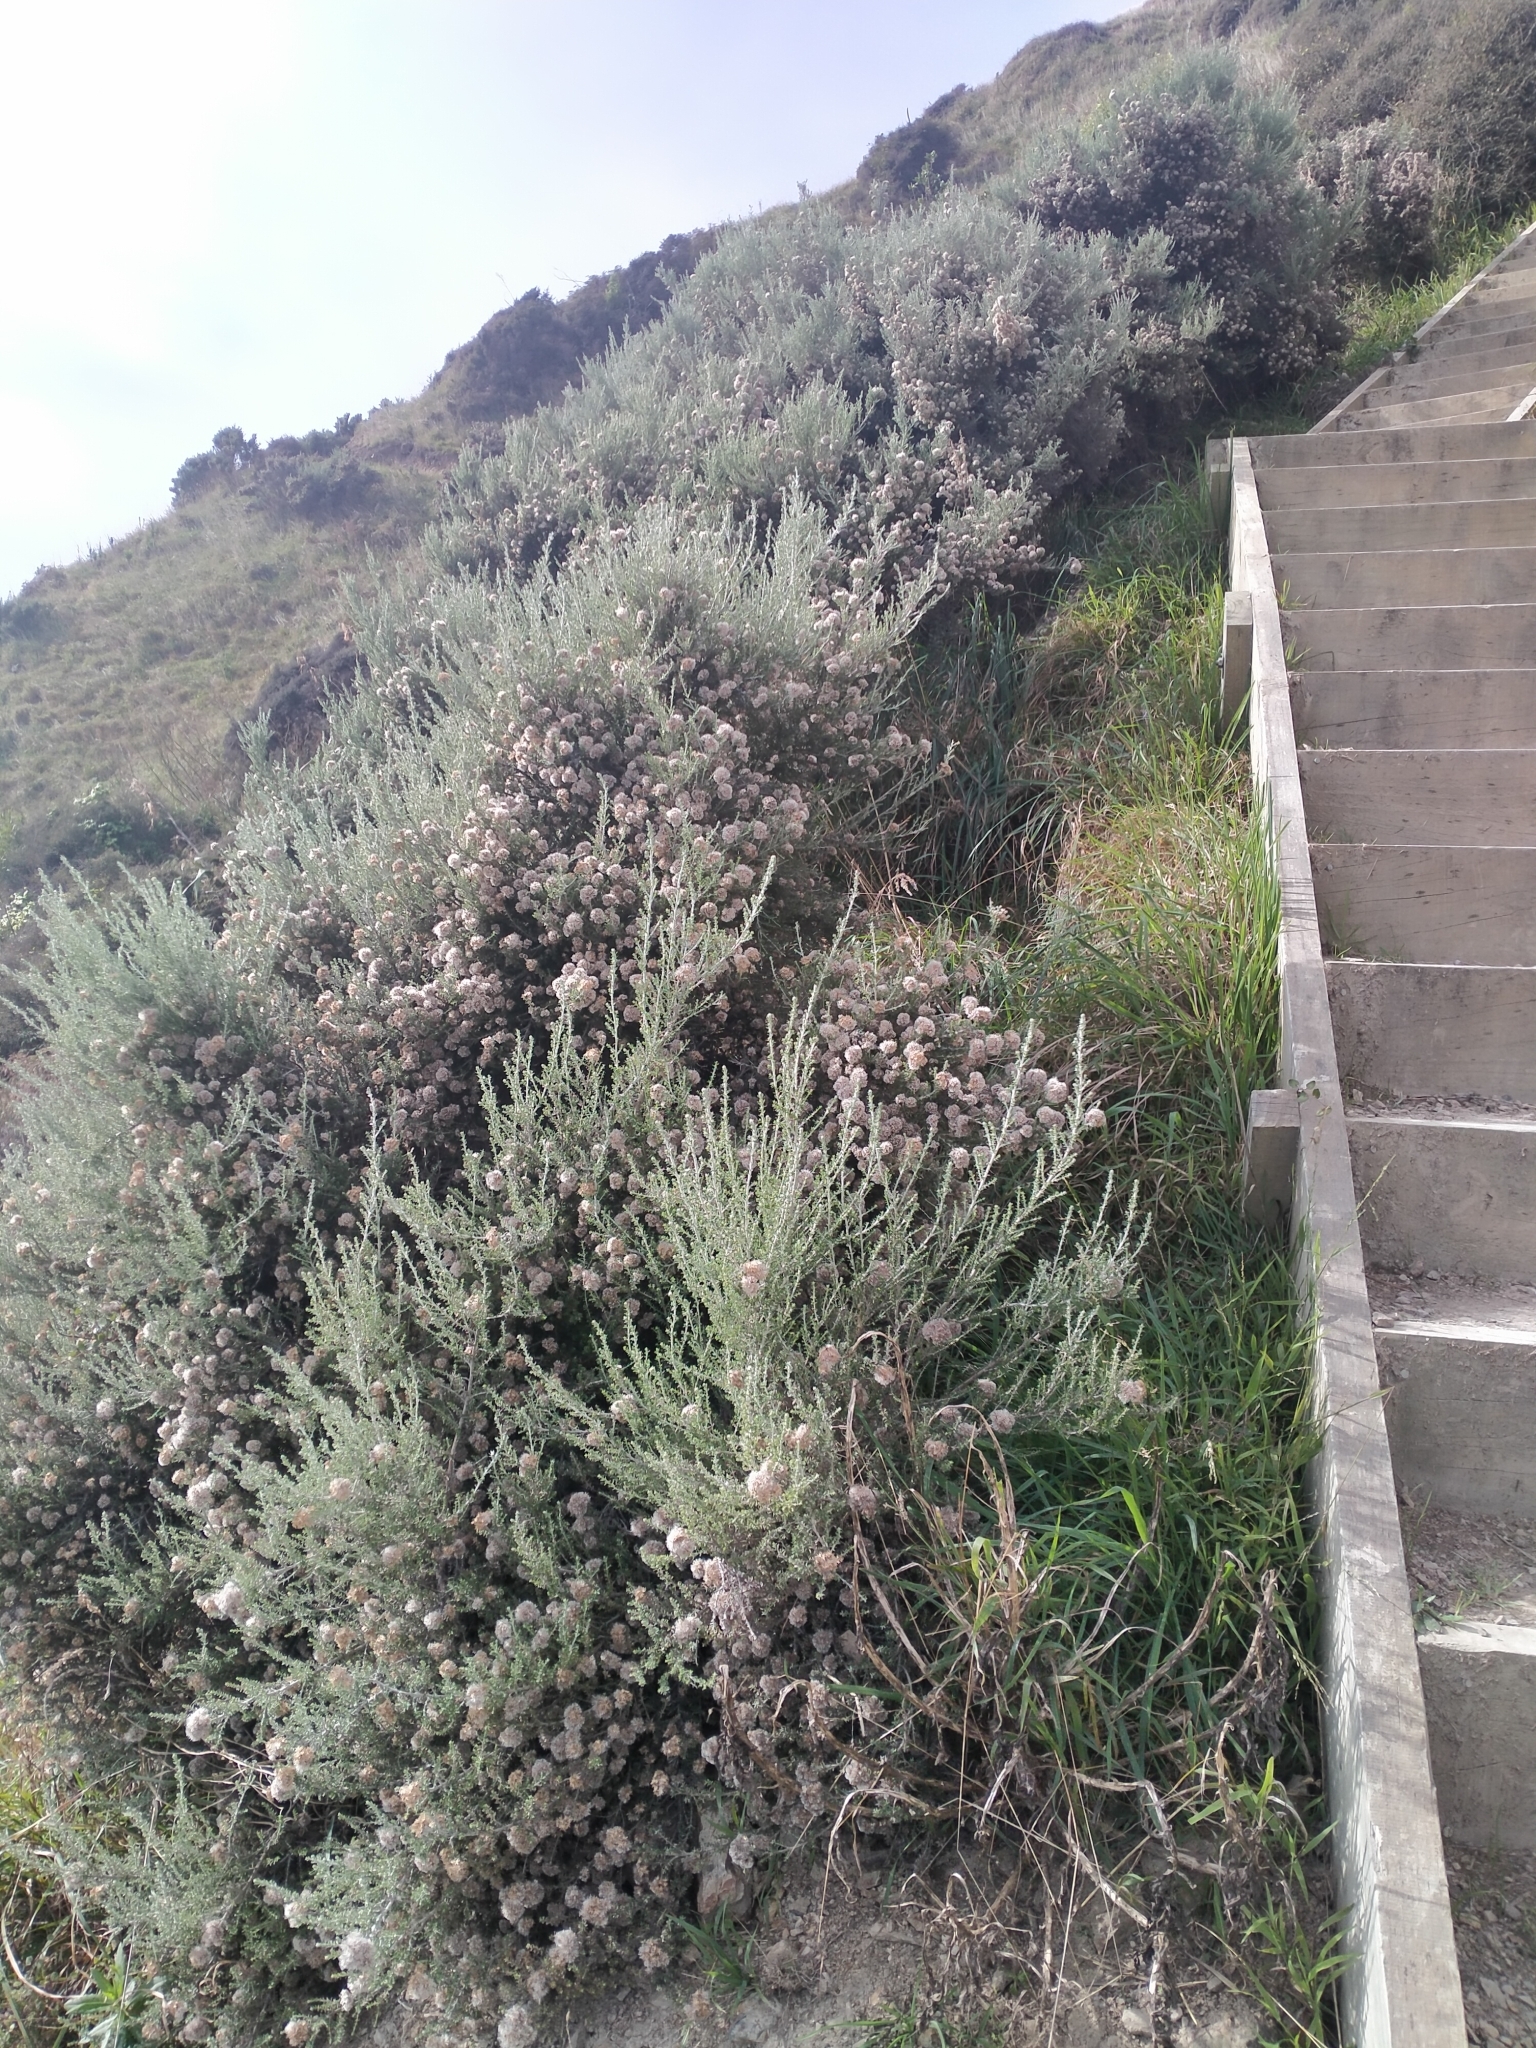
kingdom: Plantae
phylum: Tracheophyta
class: Magnoliopsida
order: Asterales
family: Asteraceae
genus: Ozothamnus
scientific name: Ozothamnus leptophyllus
